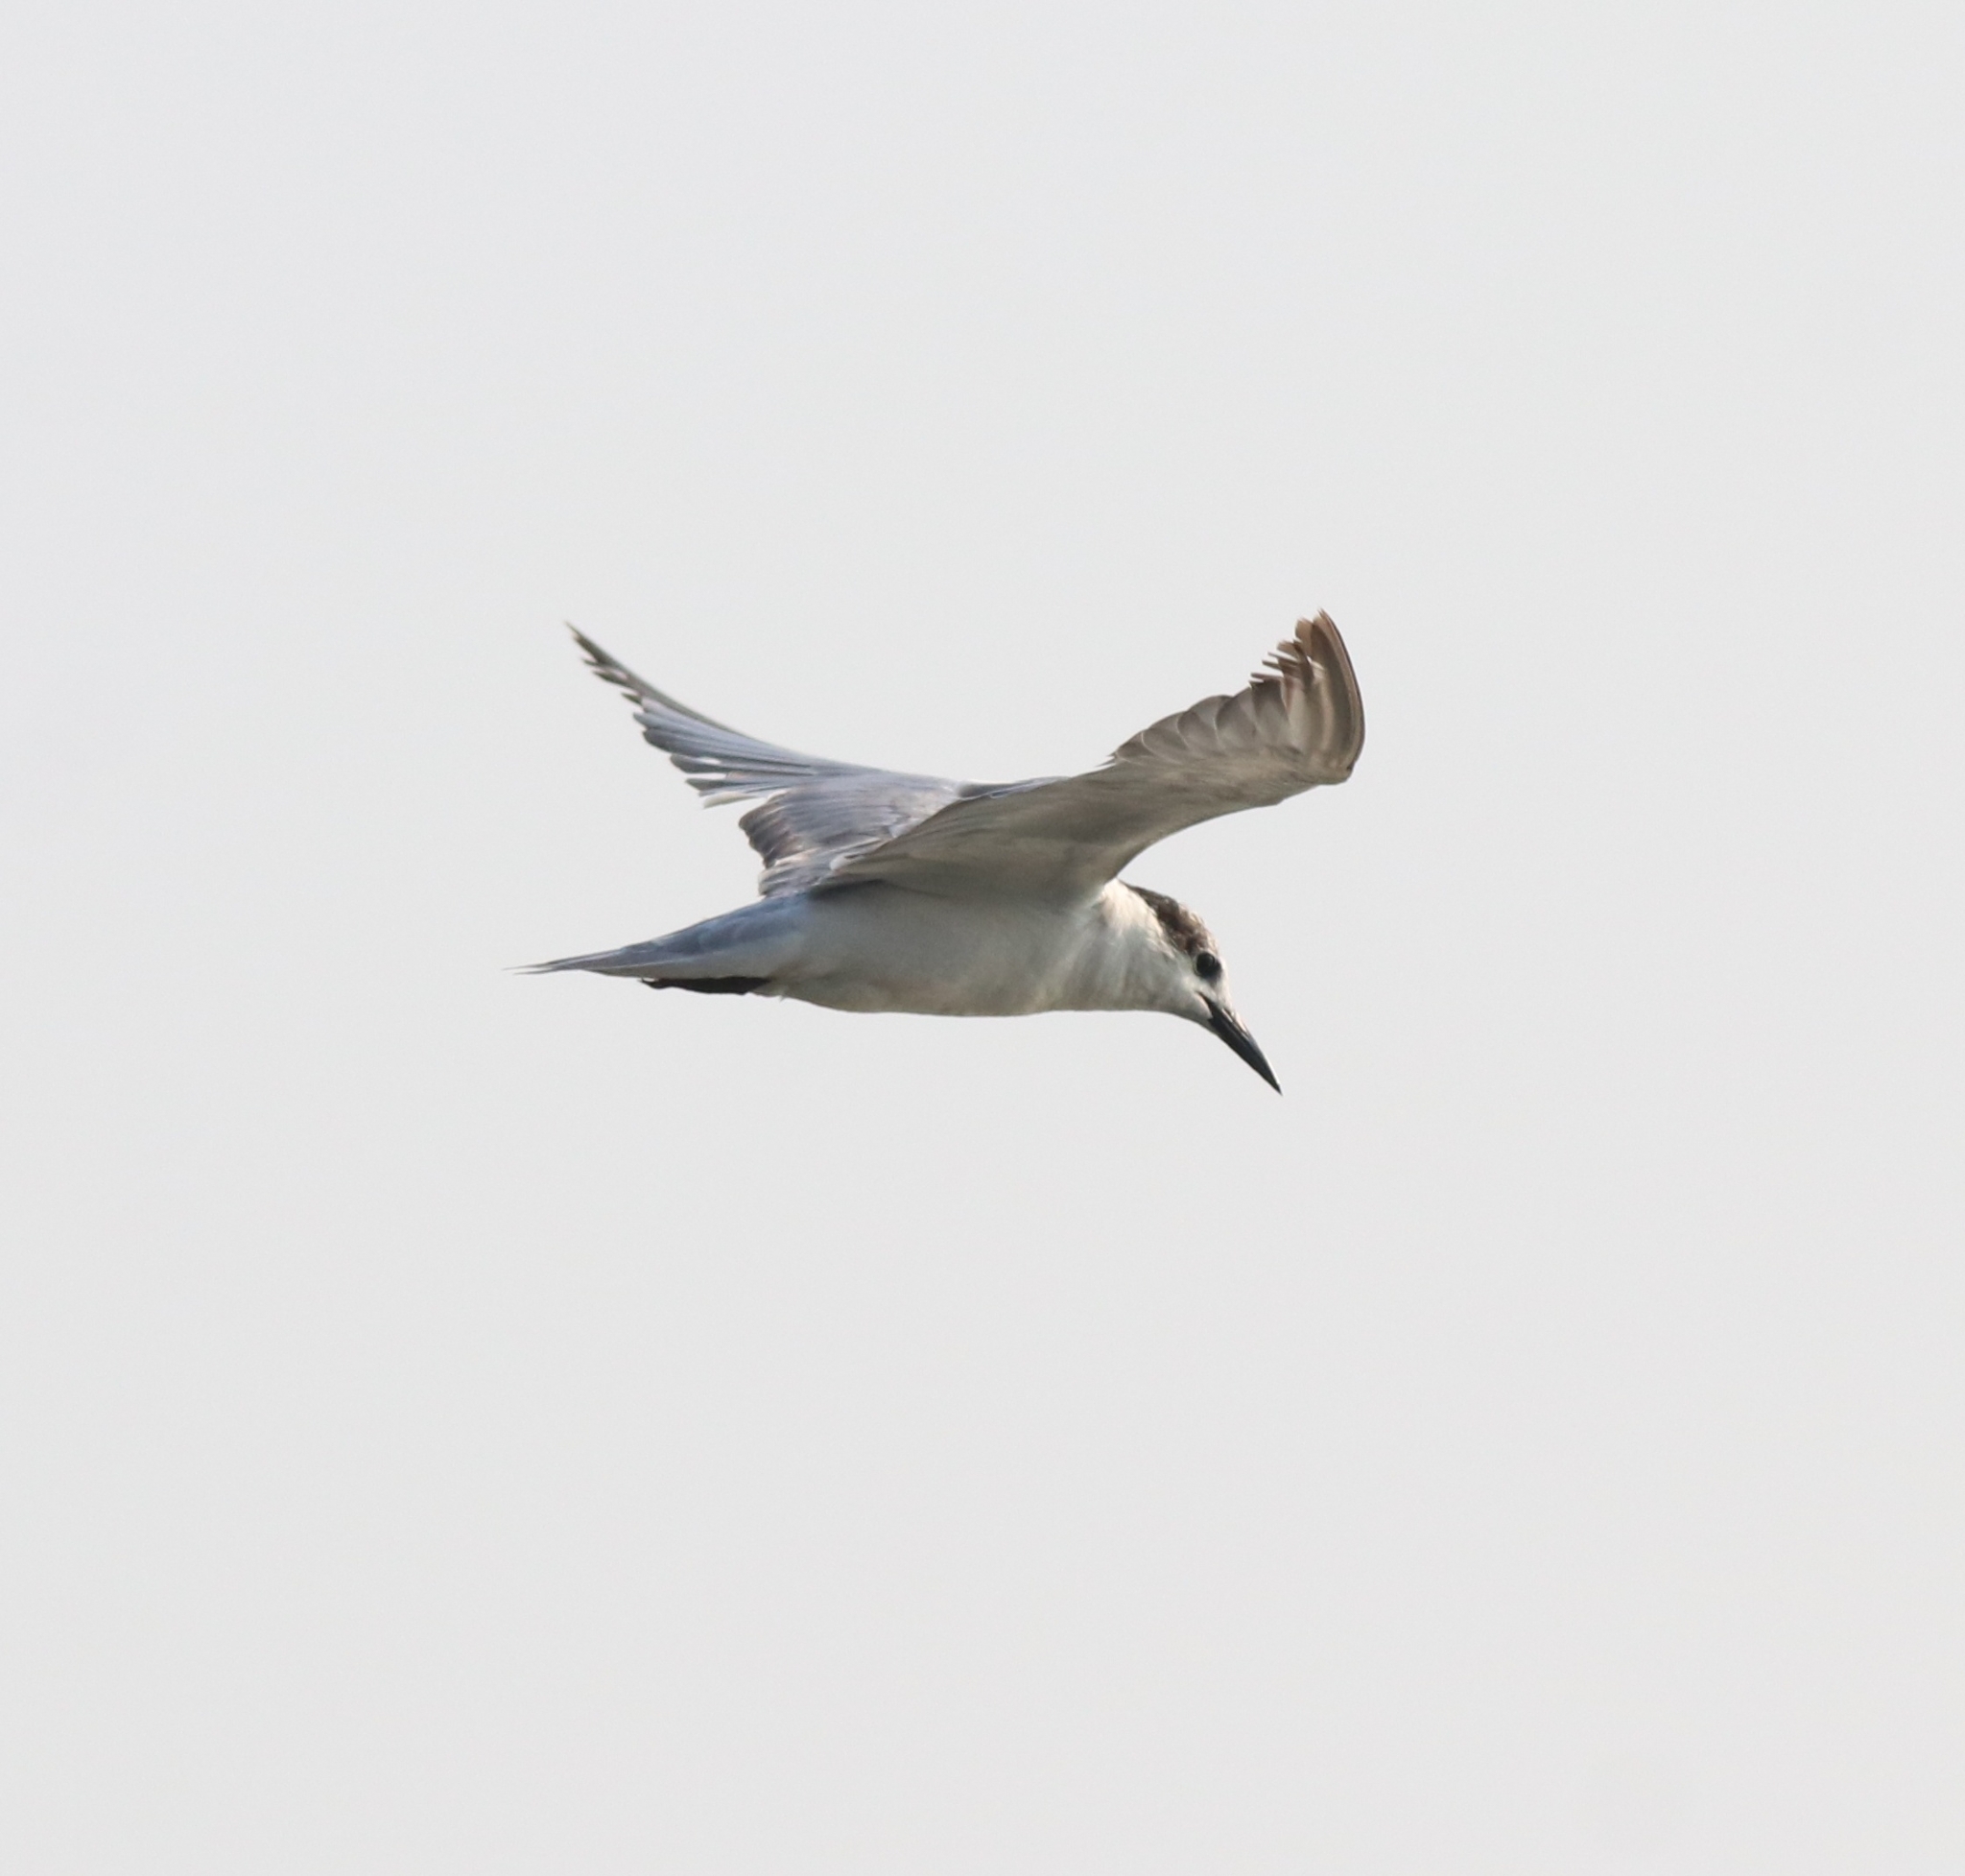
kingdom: Animalia
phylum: Chordata
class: Aves
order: Charadriiformes
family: Laridae
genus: Chlidonias
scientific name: Chlidonias hybrida
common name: Whiskered tern
